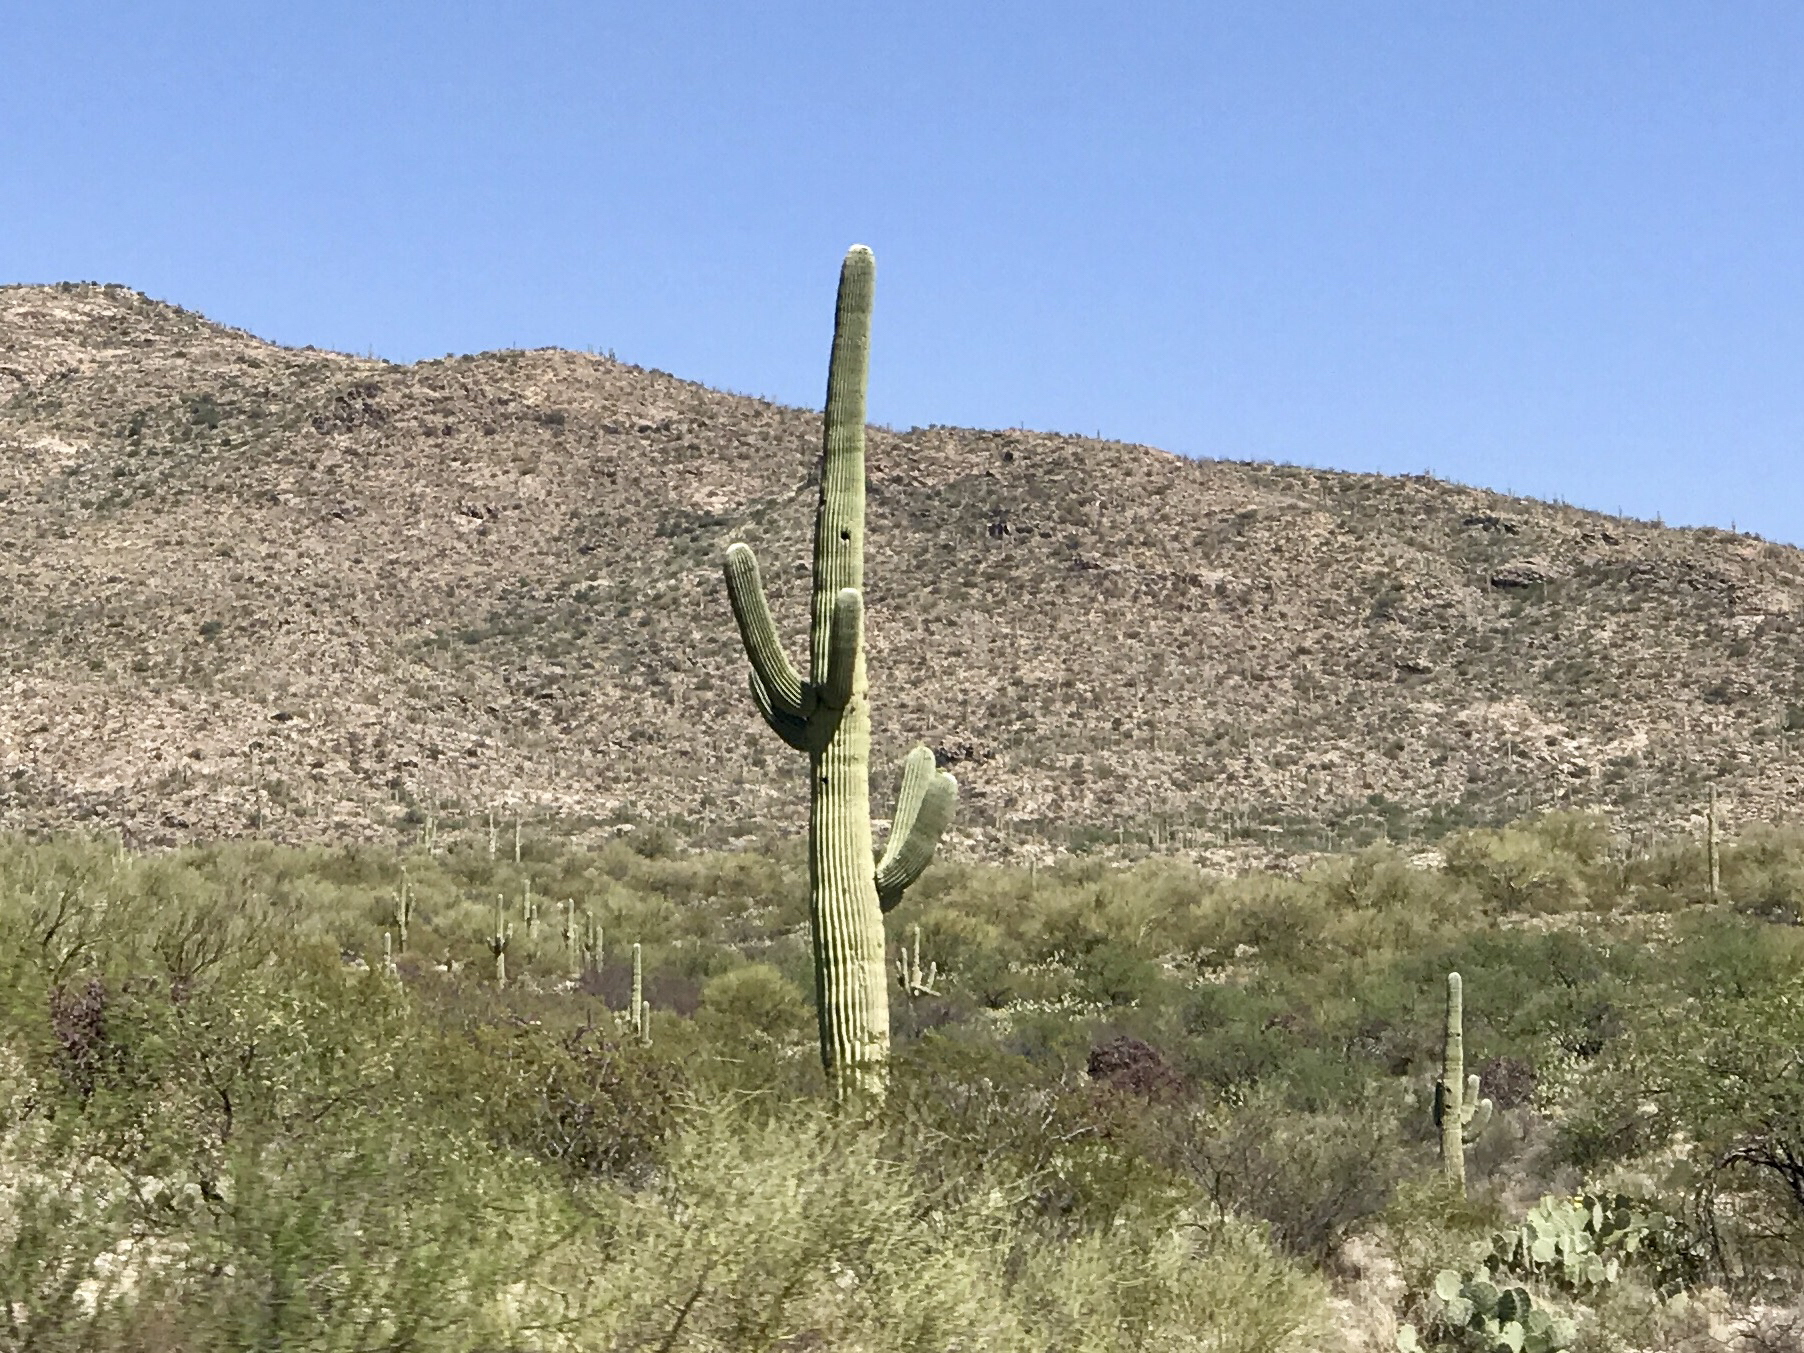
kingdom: Plantae
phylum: Tracheophyta
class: Magnoliopsida
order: Caryophyllales
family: Cactaceae
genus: Carnegiea
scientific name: Carnegiea gigantea
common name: Saguaro
